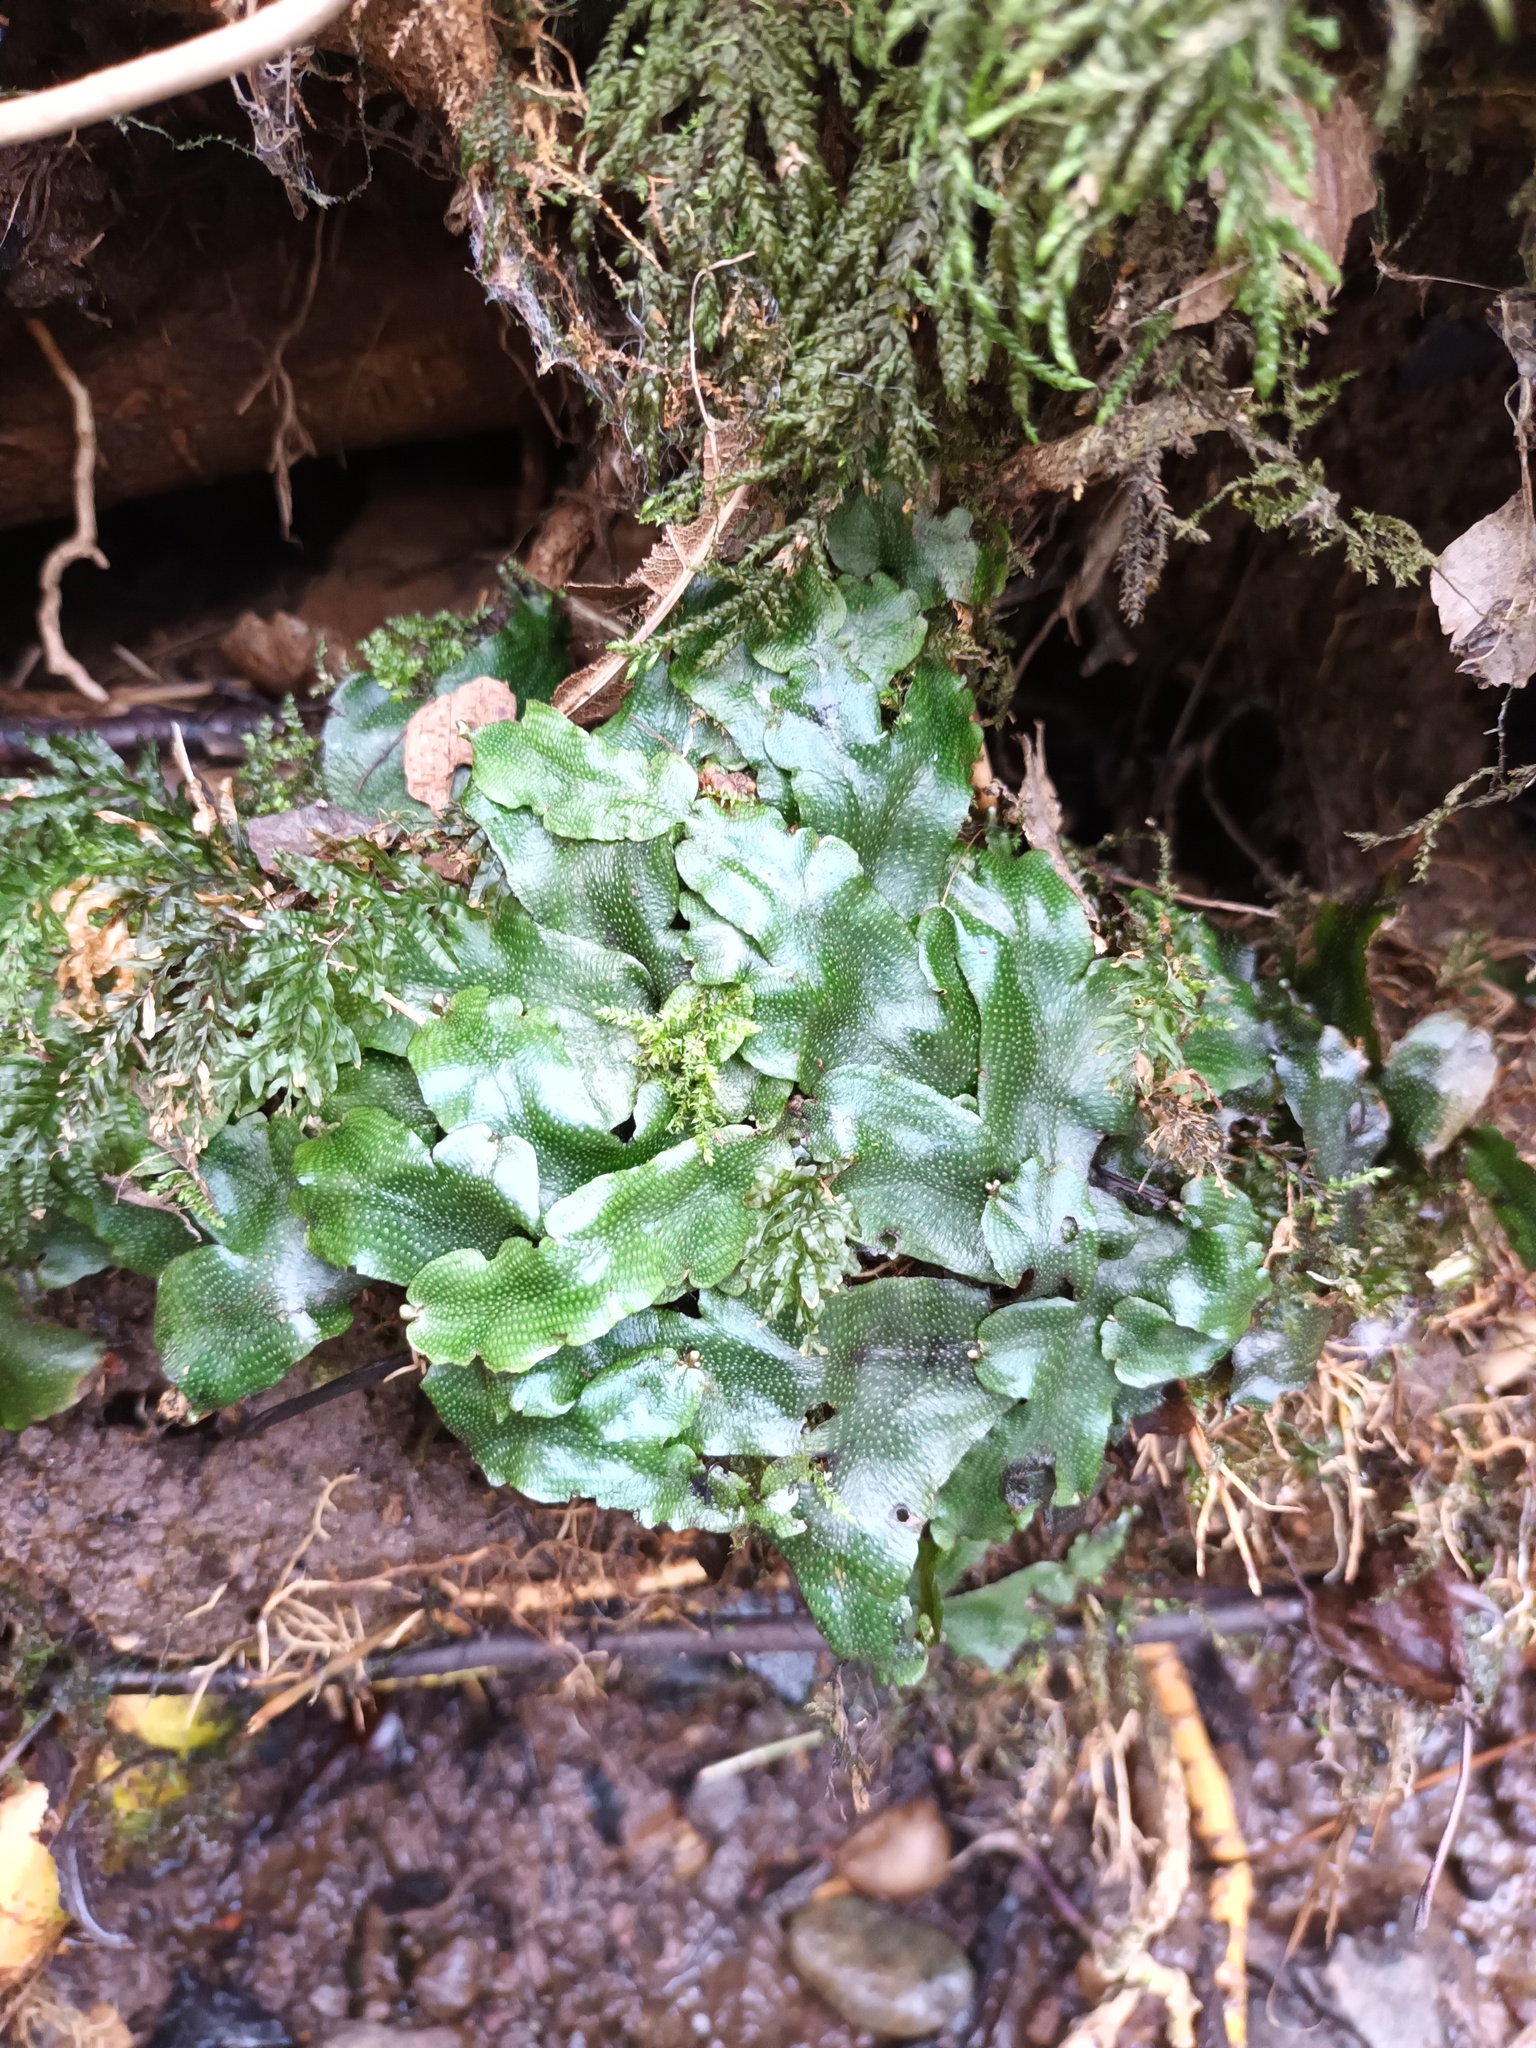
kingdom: Plantae
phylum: Marchantiophyta
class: Marchantiopsida
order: Marchantiales
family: Conocephalaceae
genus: Conocephalum
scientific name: Conocephalum conicum
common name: Great scented liverwort
